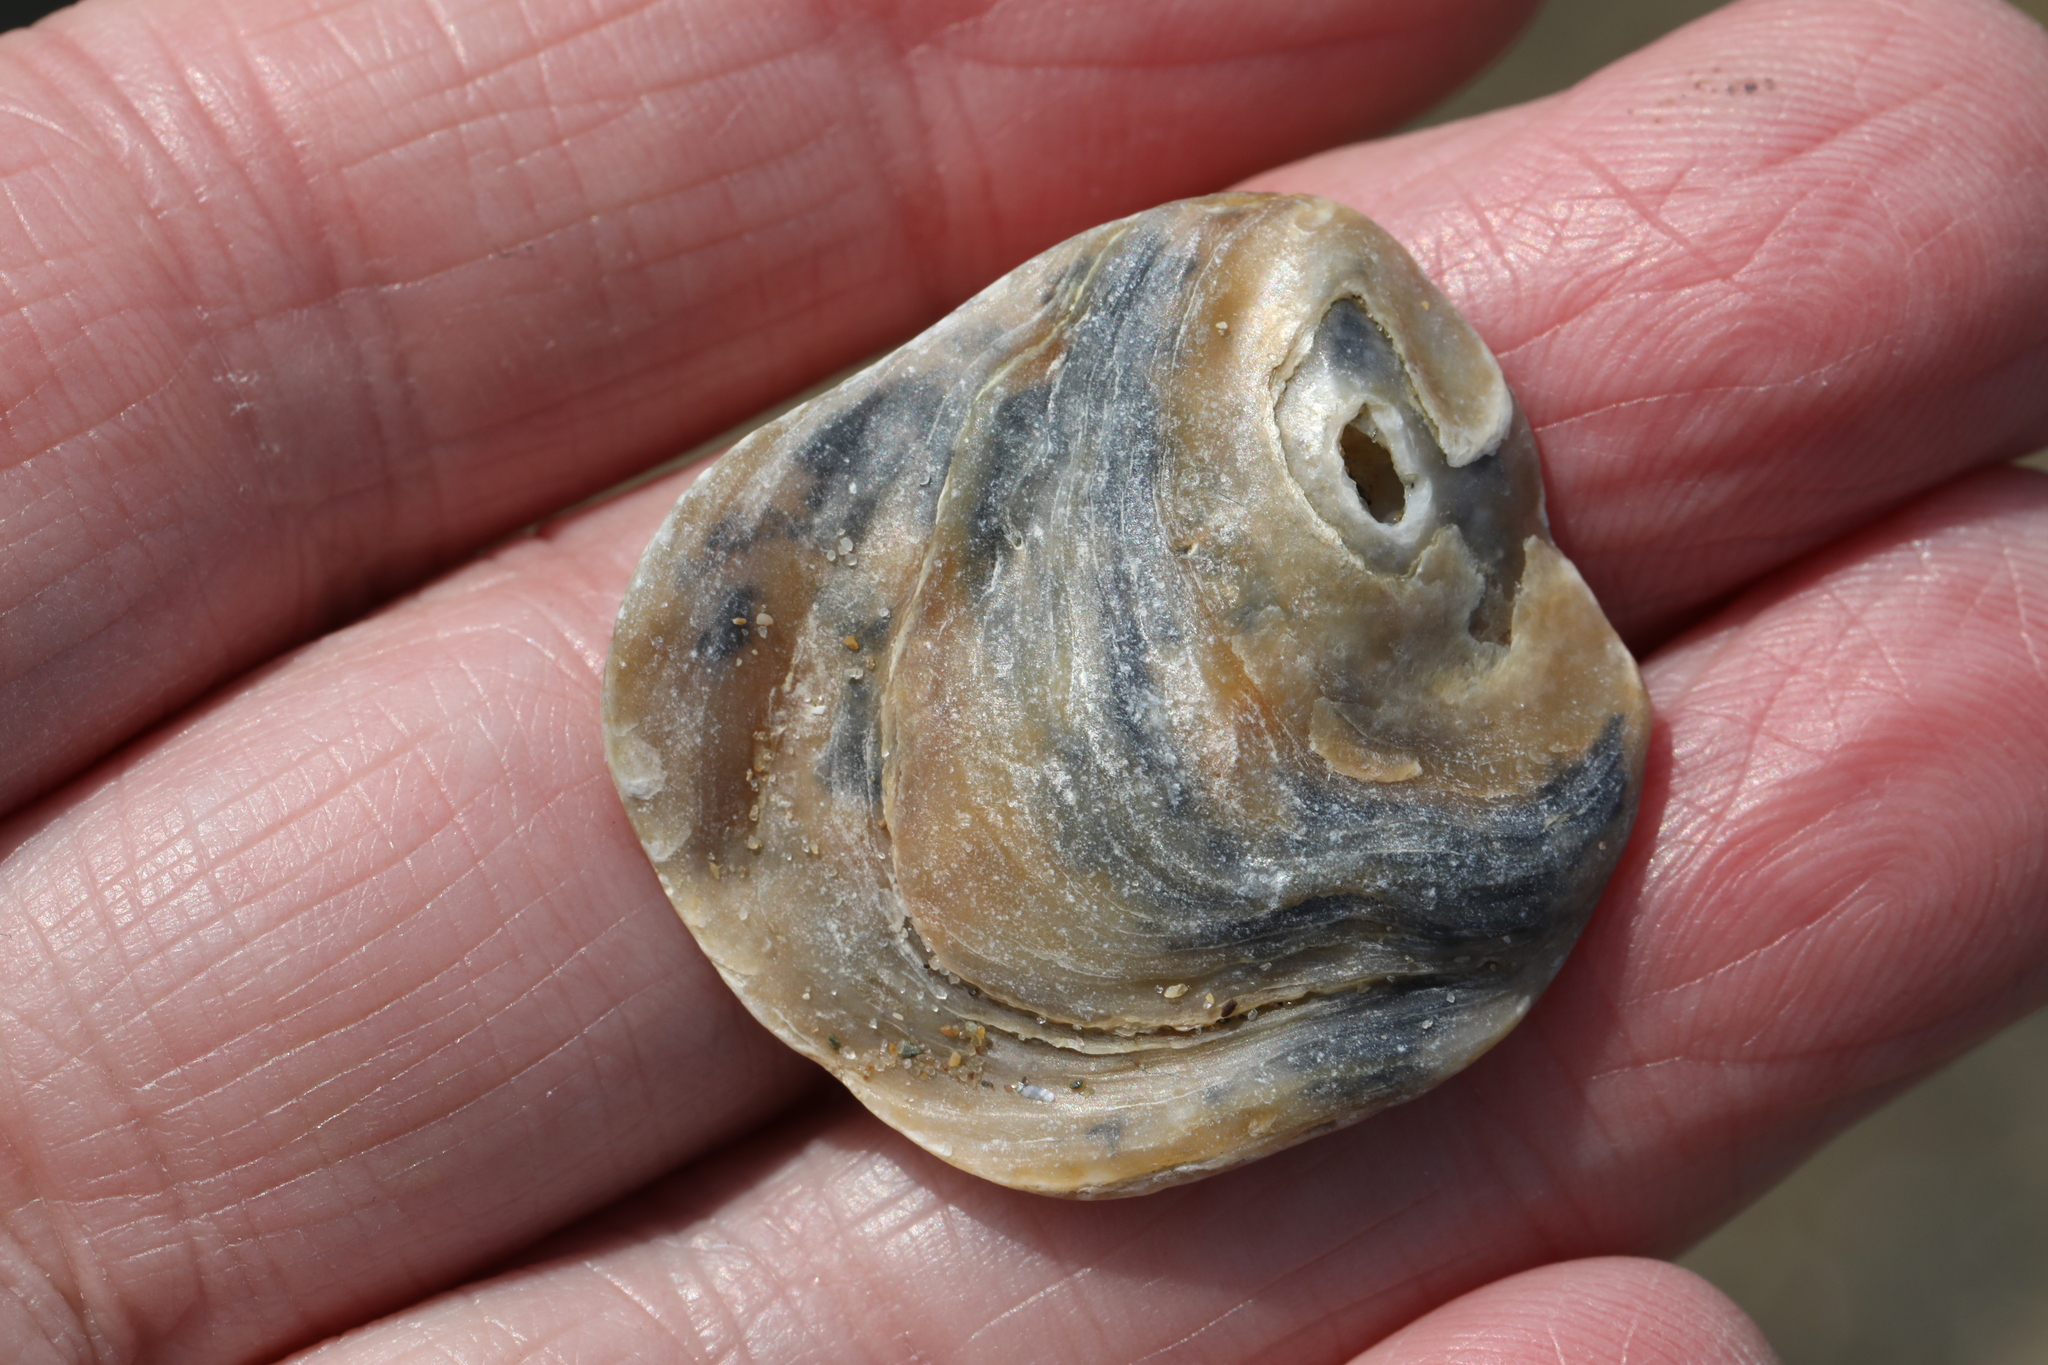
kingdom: Animalia
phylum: Mollusca
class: Bivalvia
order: Ostreida
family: Ostreidae
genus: Ostrea
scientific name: Ostrea edulis
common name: Flat oyster
